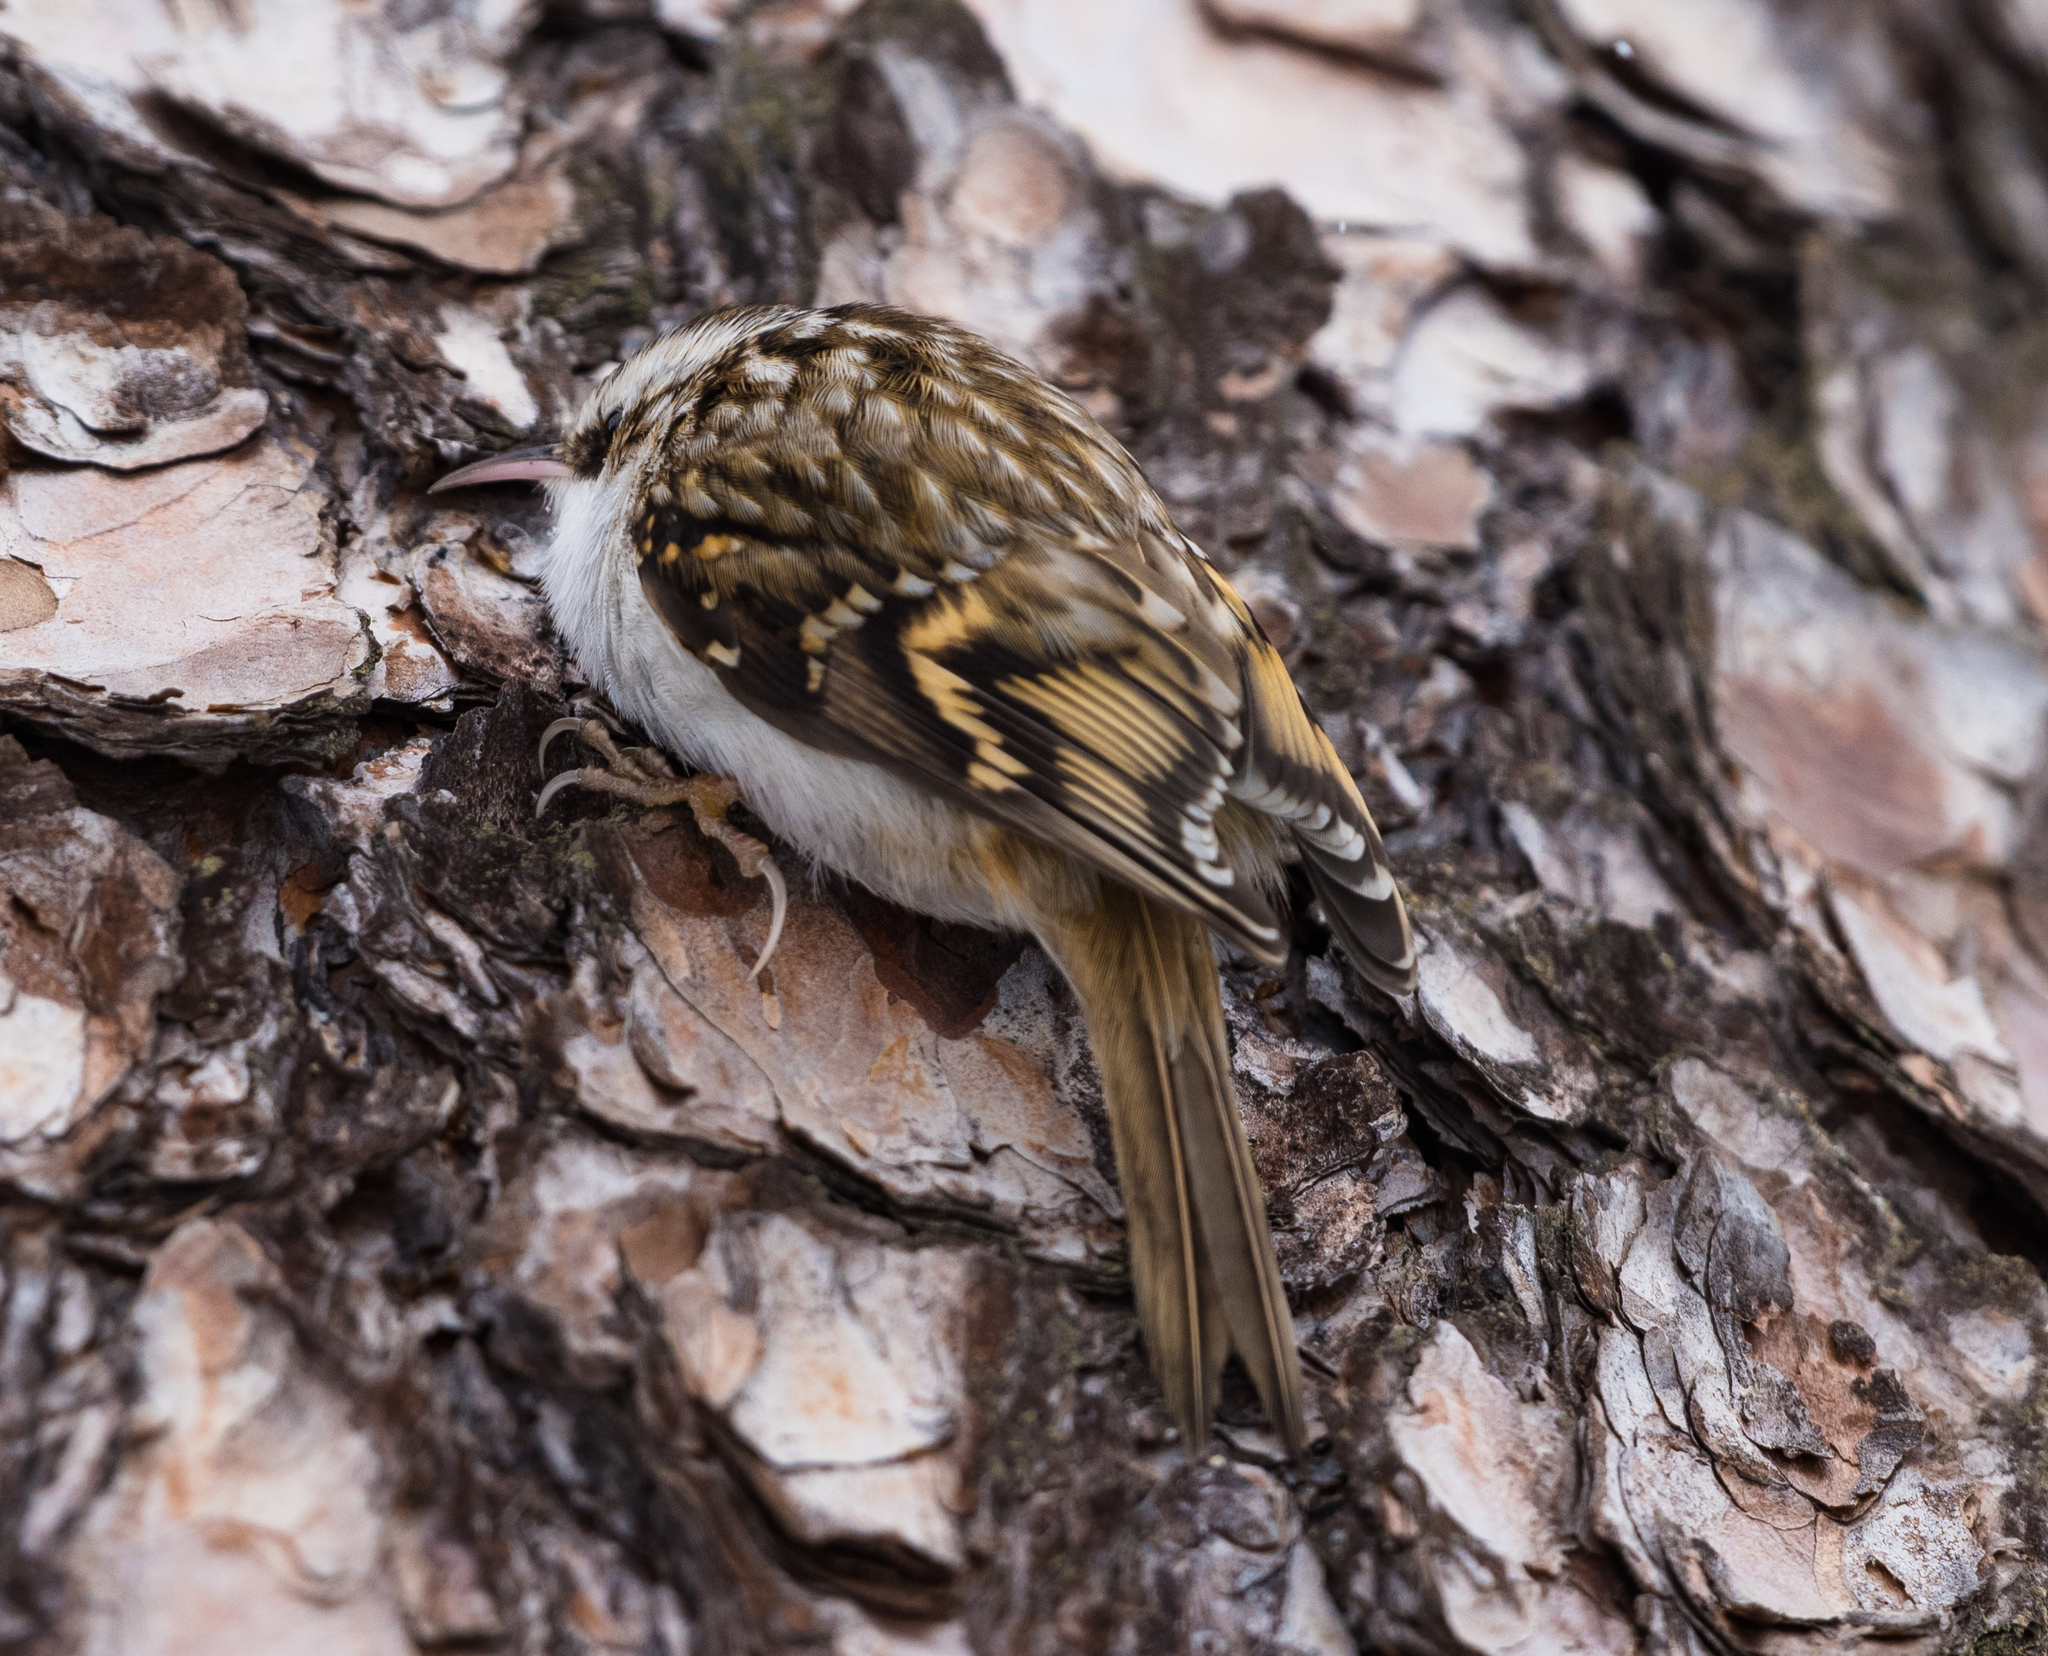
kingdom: Animalia
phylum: Chordata
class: Aves
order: Passeriformes
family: Certhiidae
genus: Certhia
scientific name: Certhia familiaris
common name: Eurasian treecreeper
